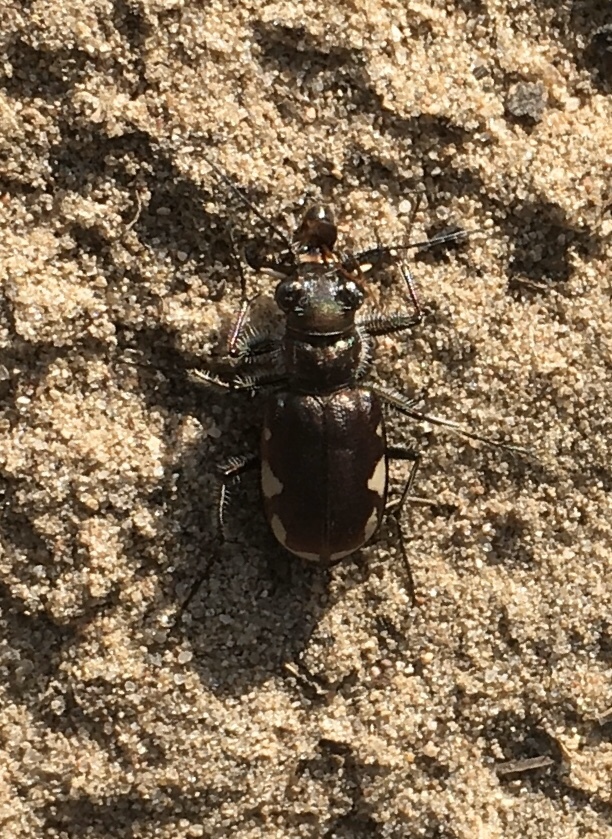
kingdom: Animalia
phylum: Arthropoda
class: Insecta
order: Coleoptera
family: Carabidae
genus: Cicindela
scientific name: Cicindela scutellaris
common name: Festive tiger beetle
